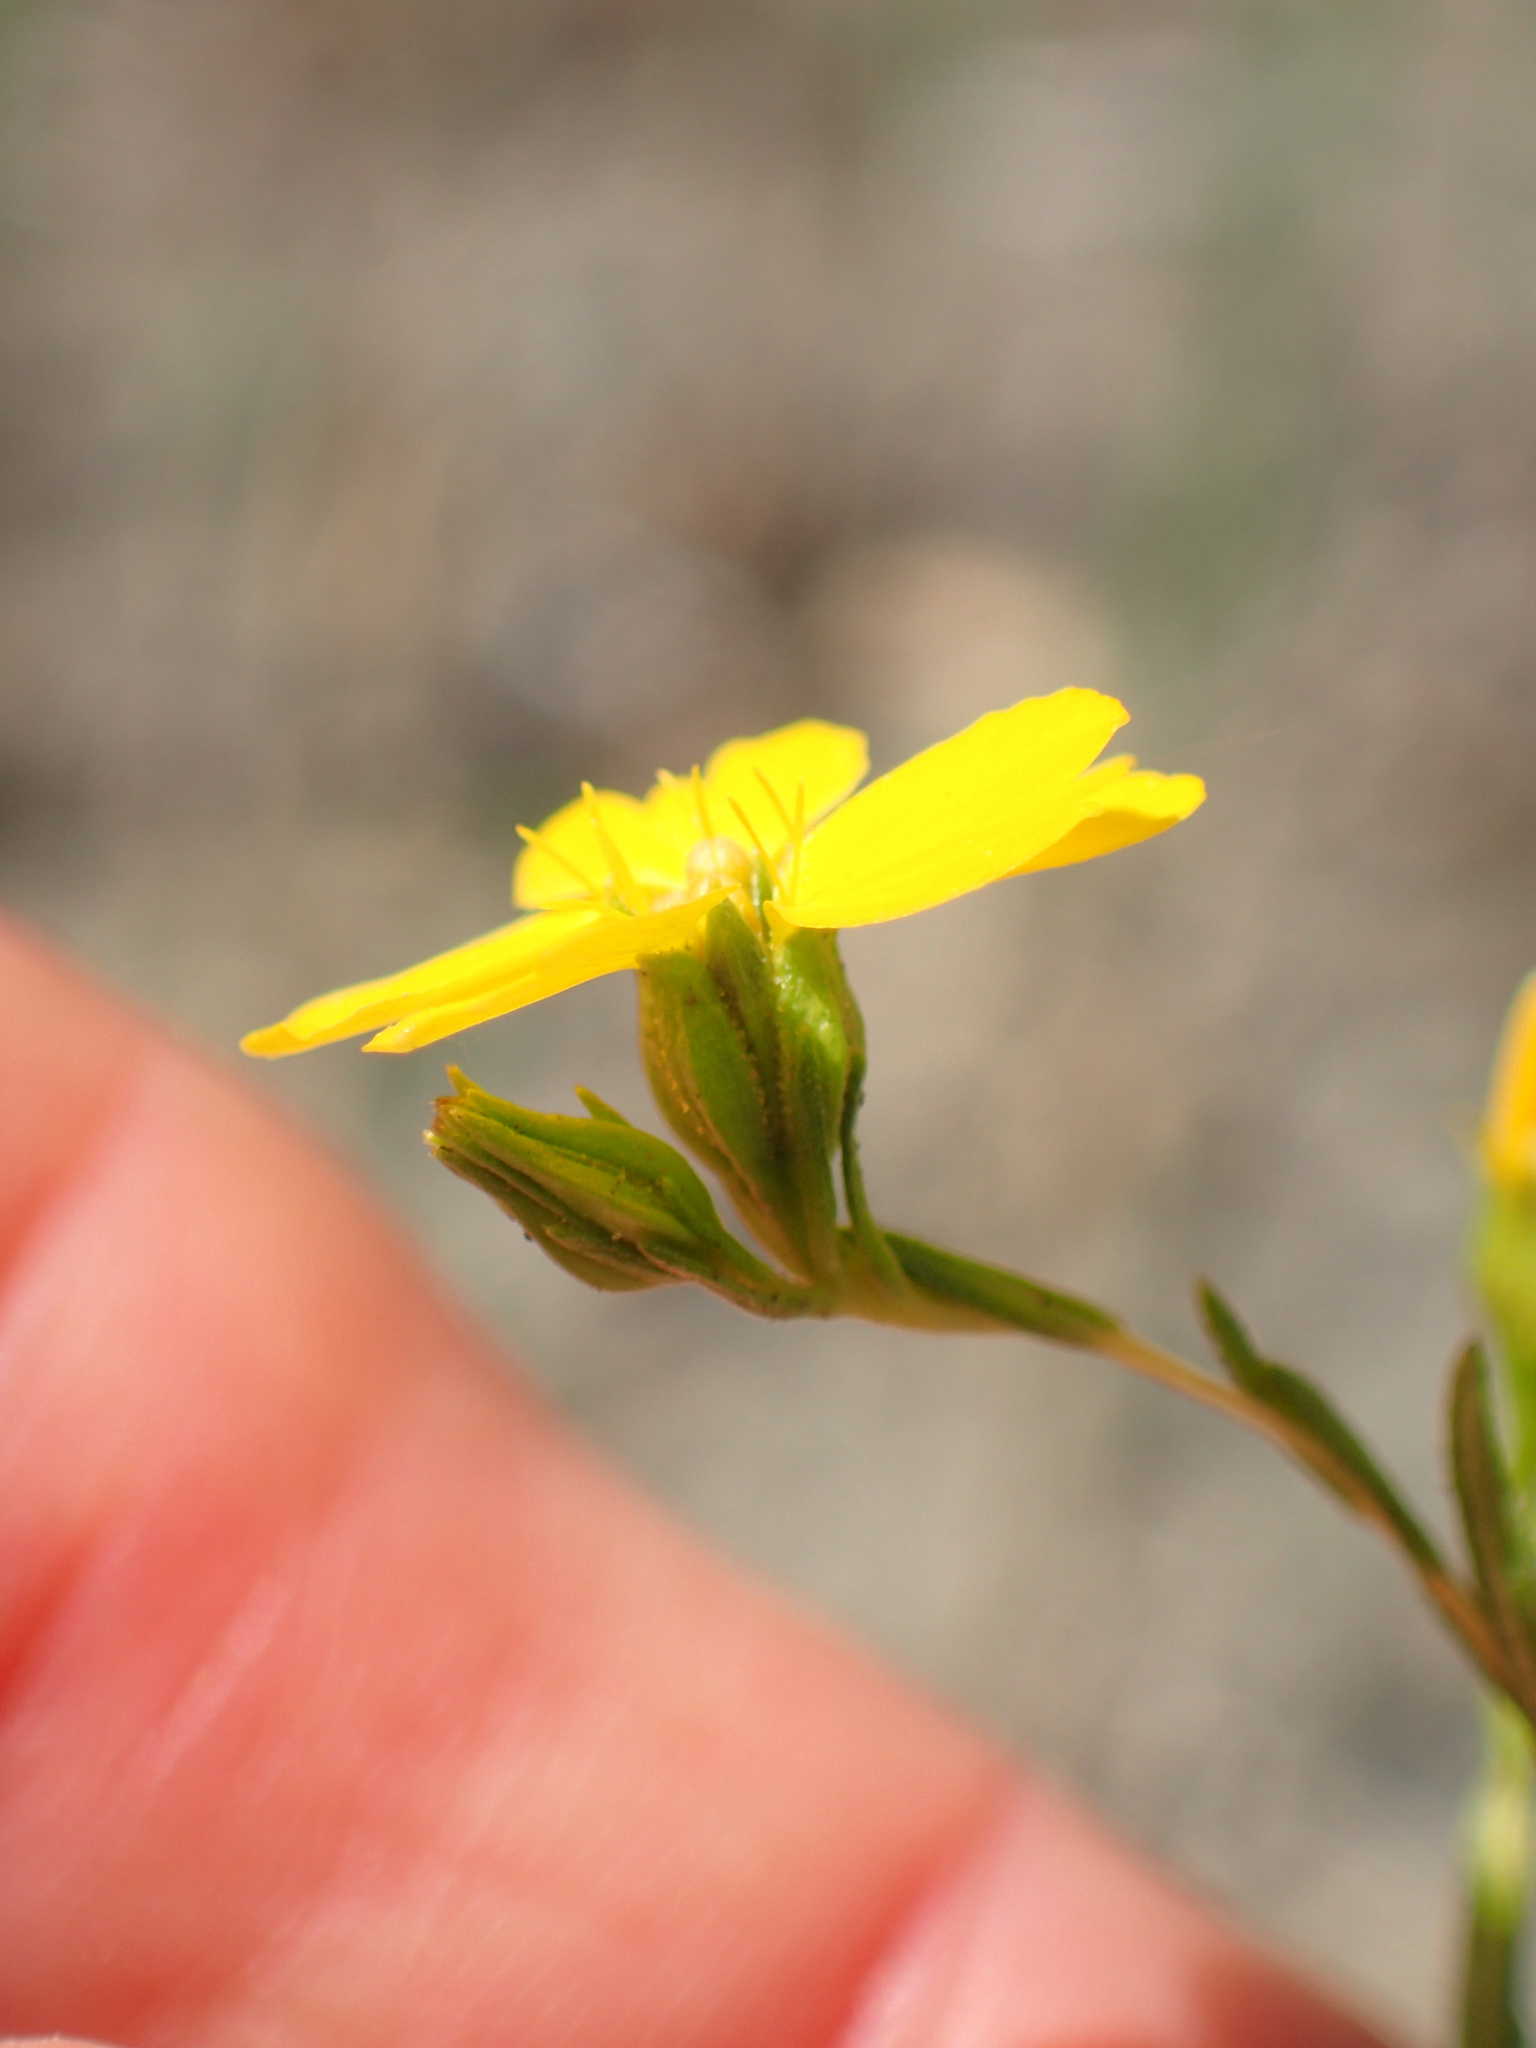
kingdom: Plantae
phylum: Tracheophyta
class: Magnoliopsida
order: Asterales
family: Asteraceae
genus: Deinandra
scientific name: Deinandra fasciculata
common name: Clustered tarweed
